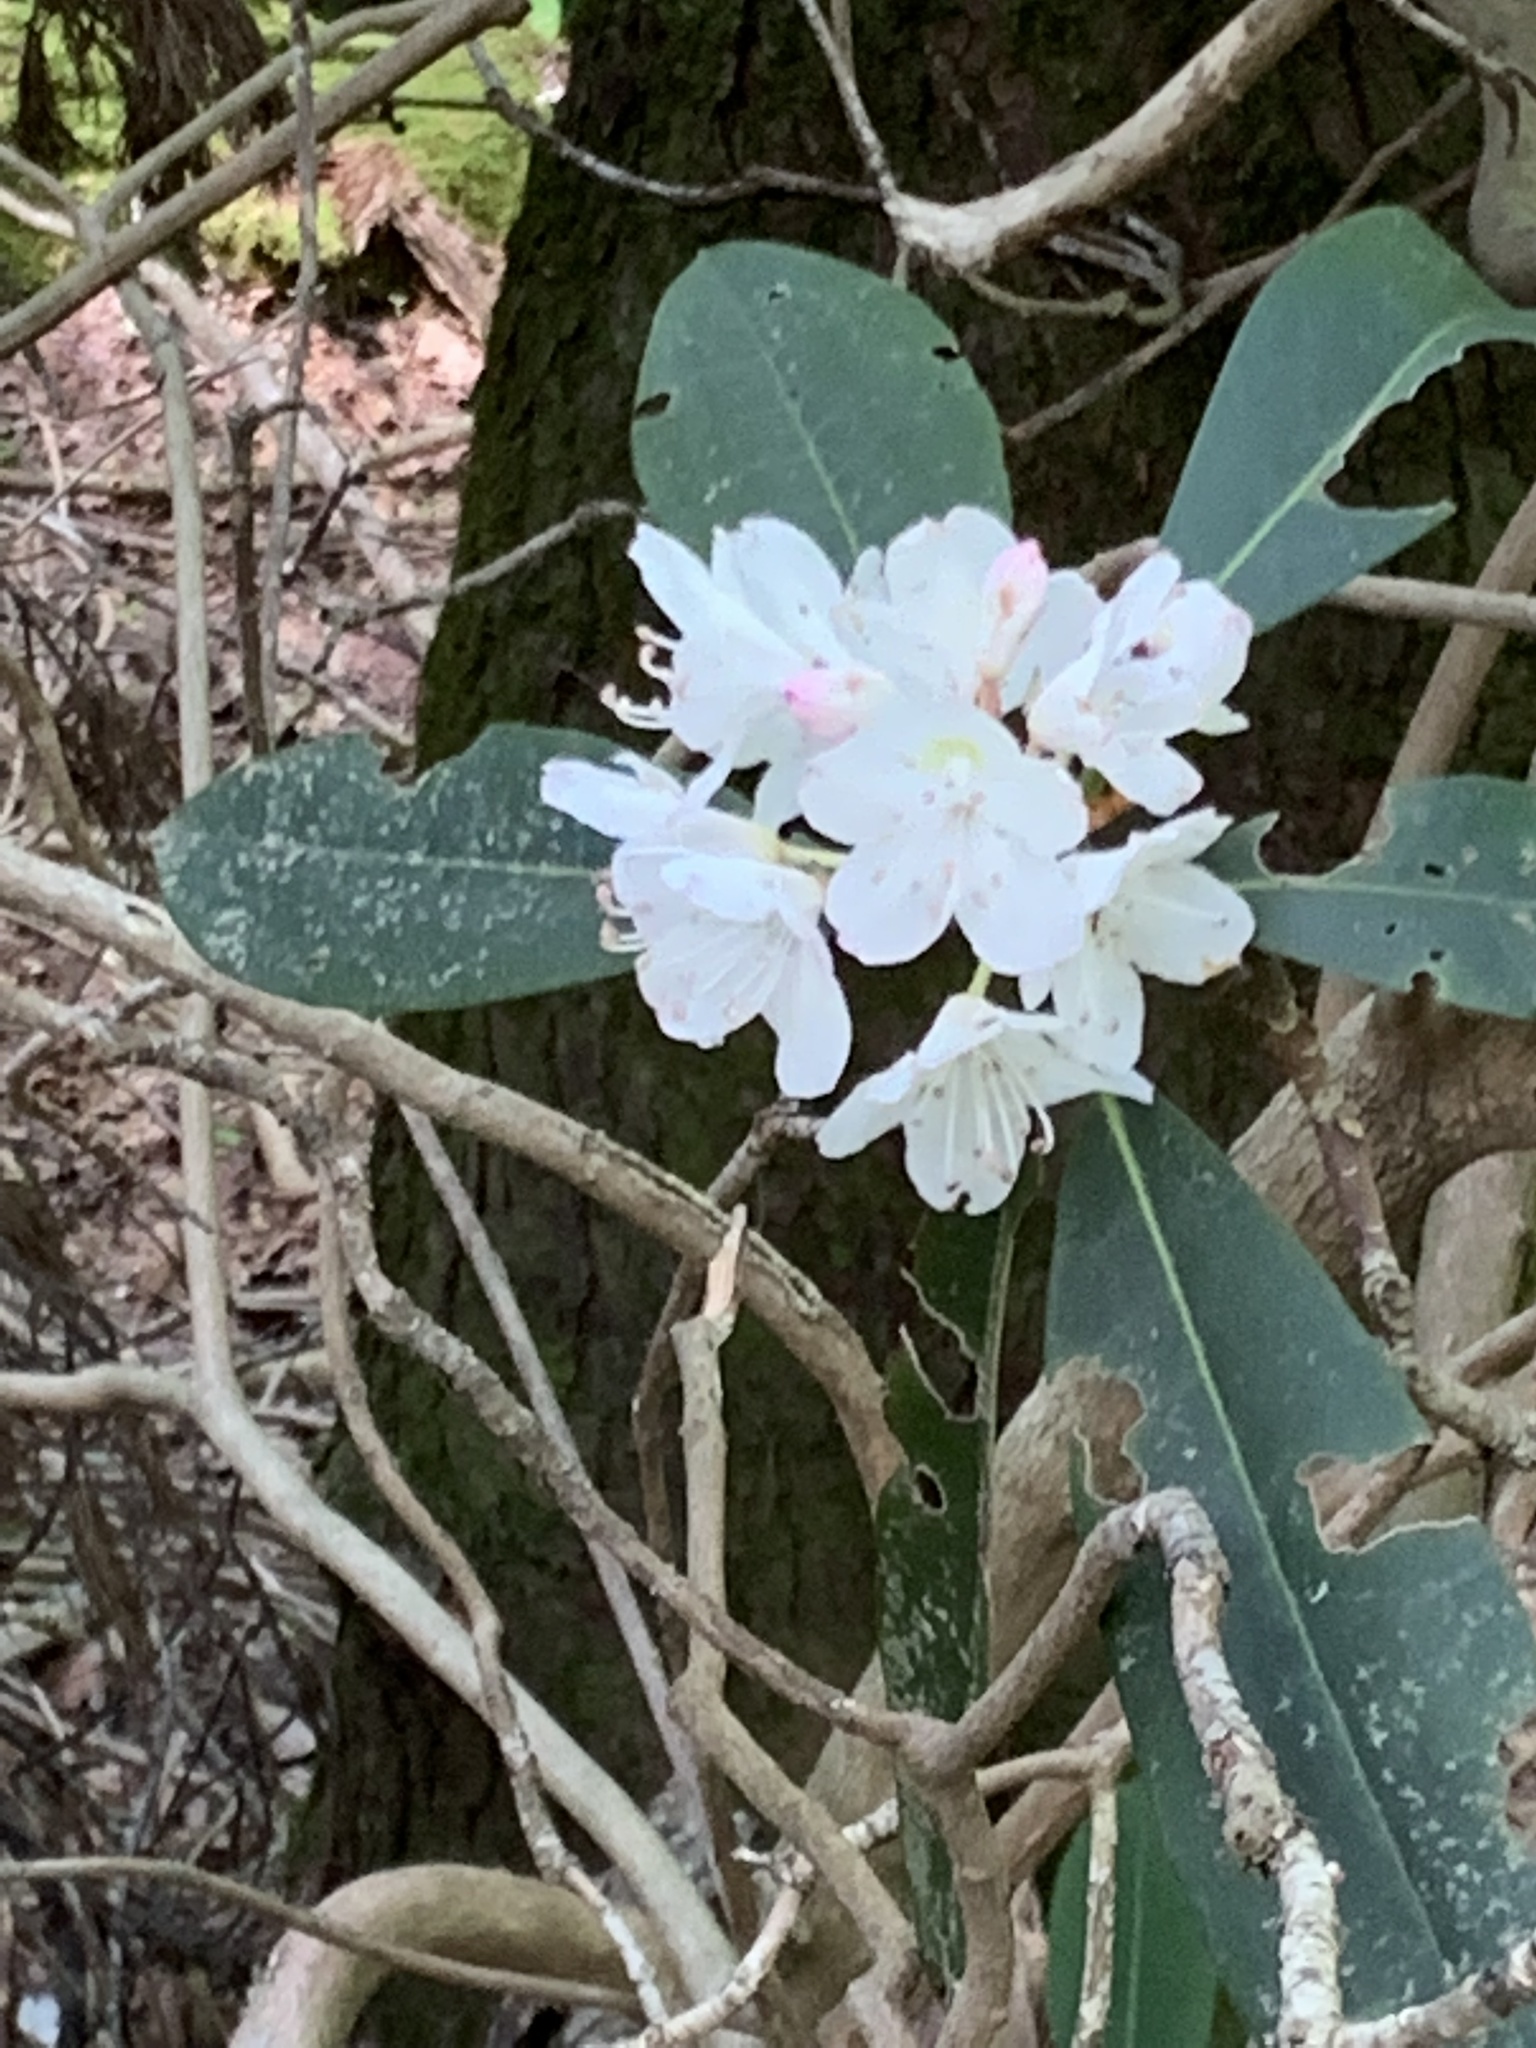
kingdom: Plantae
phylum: Tracheophyta
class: Magnoliopsida
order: Ericales
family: Ericaceae
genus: Rhododendron
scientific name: Rhododendron maximum
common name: Great rhododendron
